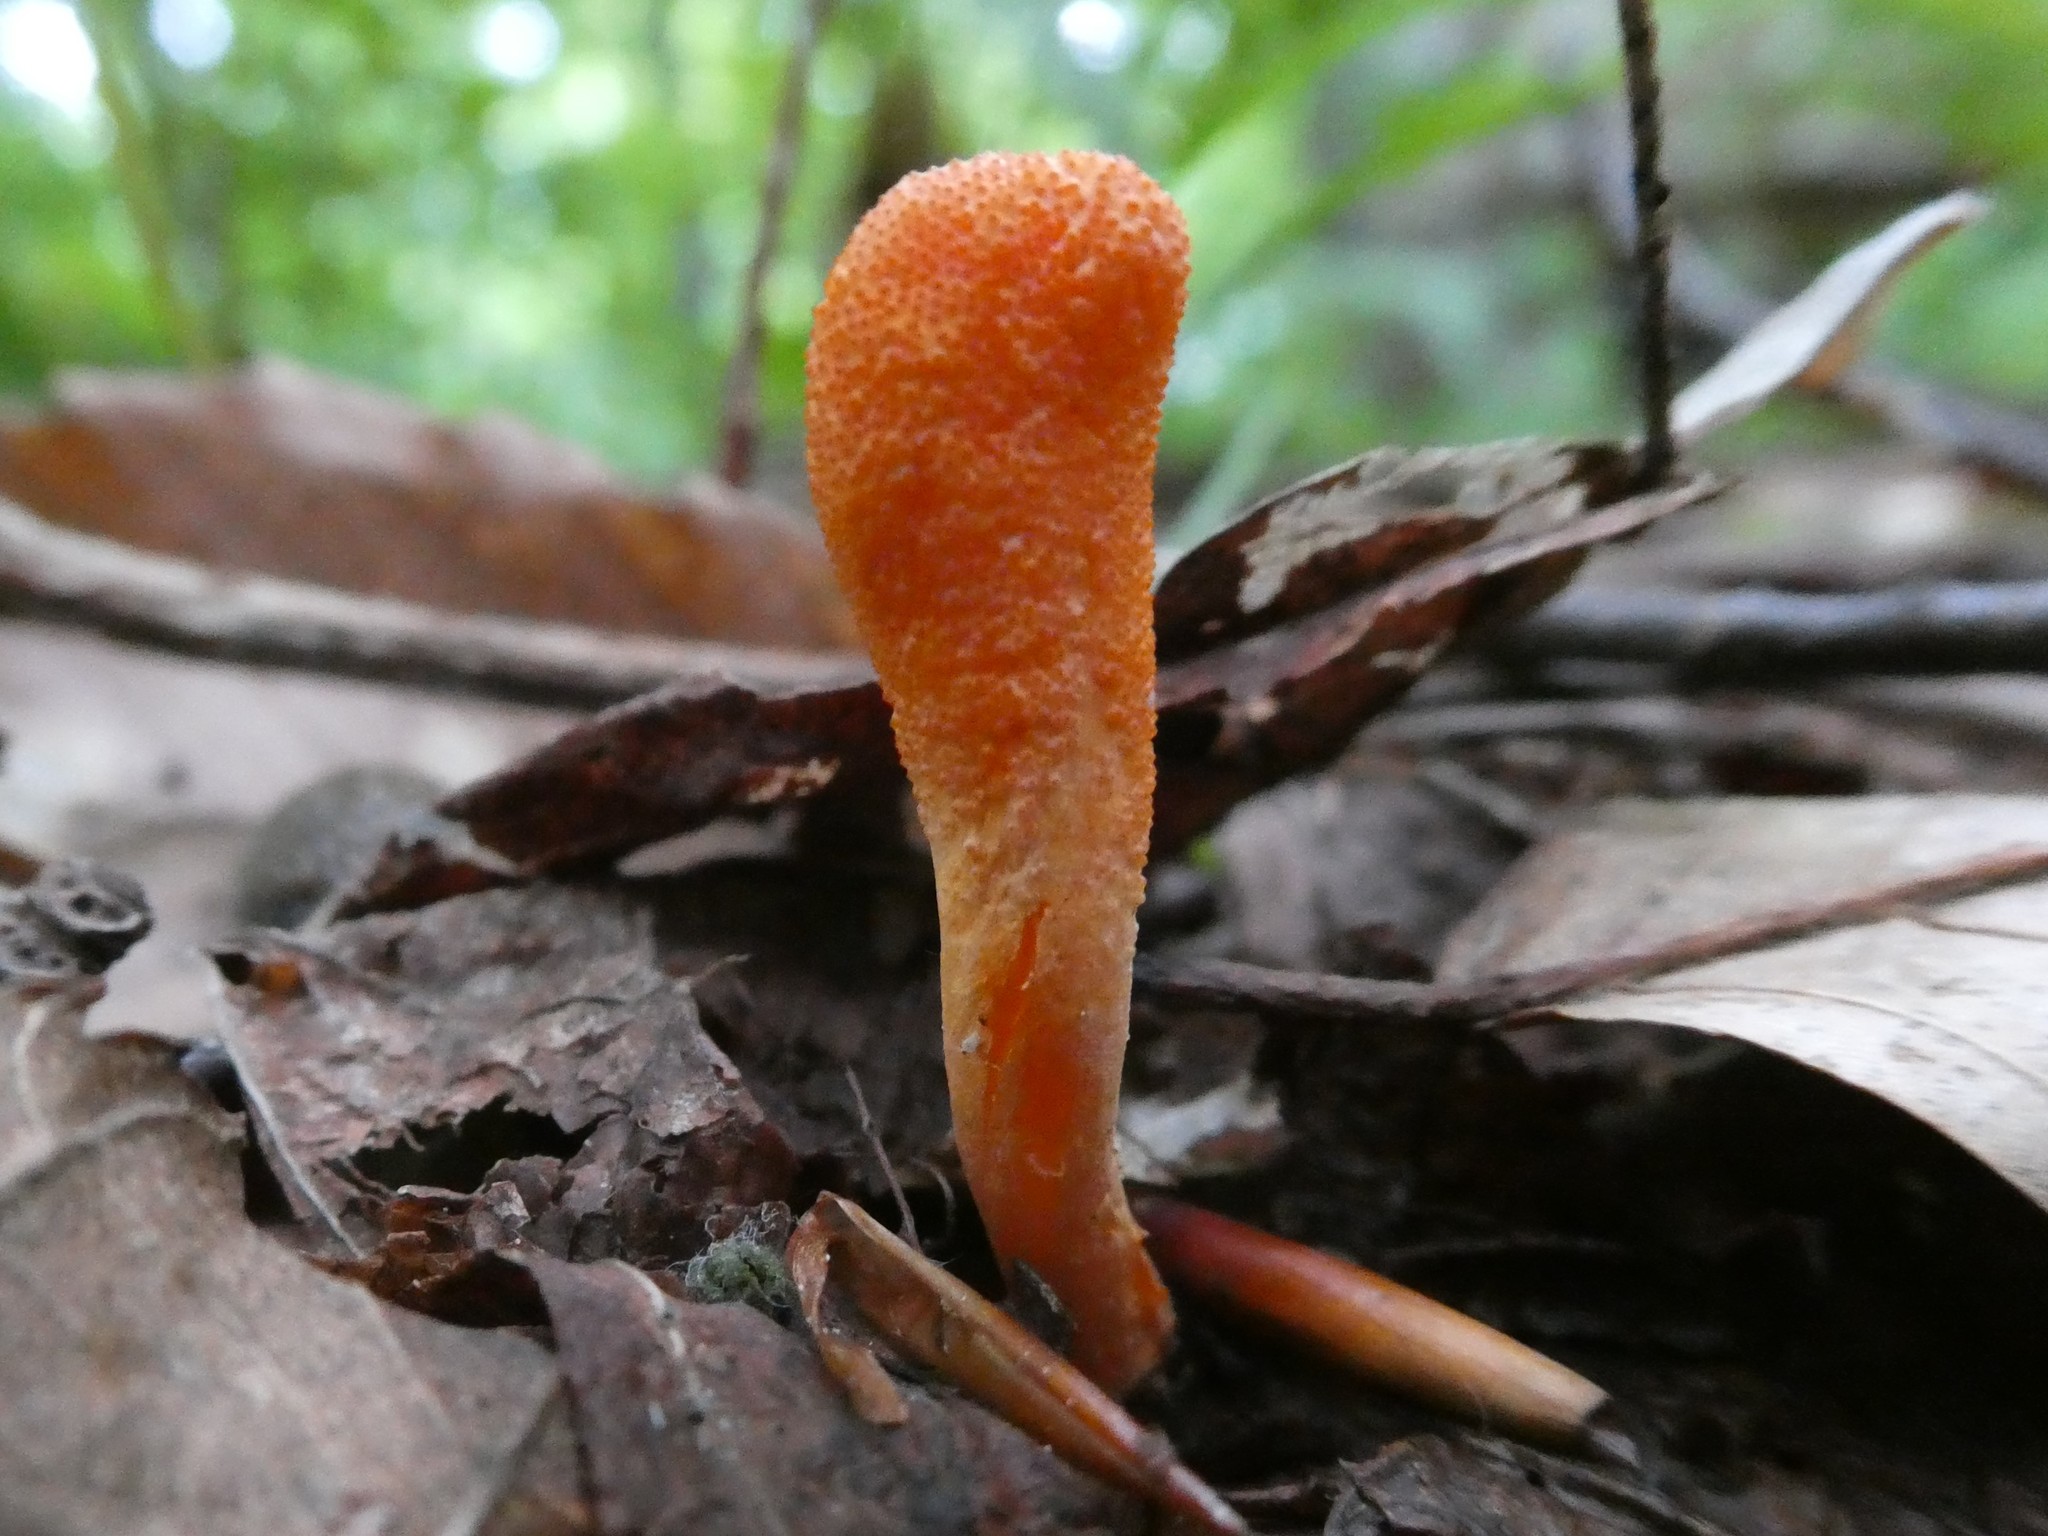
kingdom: Fungi
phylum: Ascomycota
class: Sordariomycetes
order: Hypocreales
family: Cordycipitaceae
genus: Cordyceps
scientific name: Cordyceps militaris
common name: Scarlet caterpillar fungus
